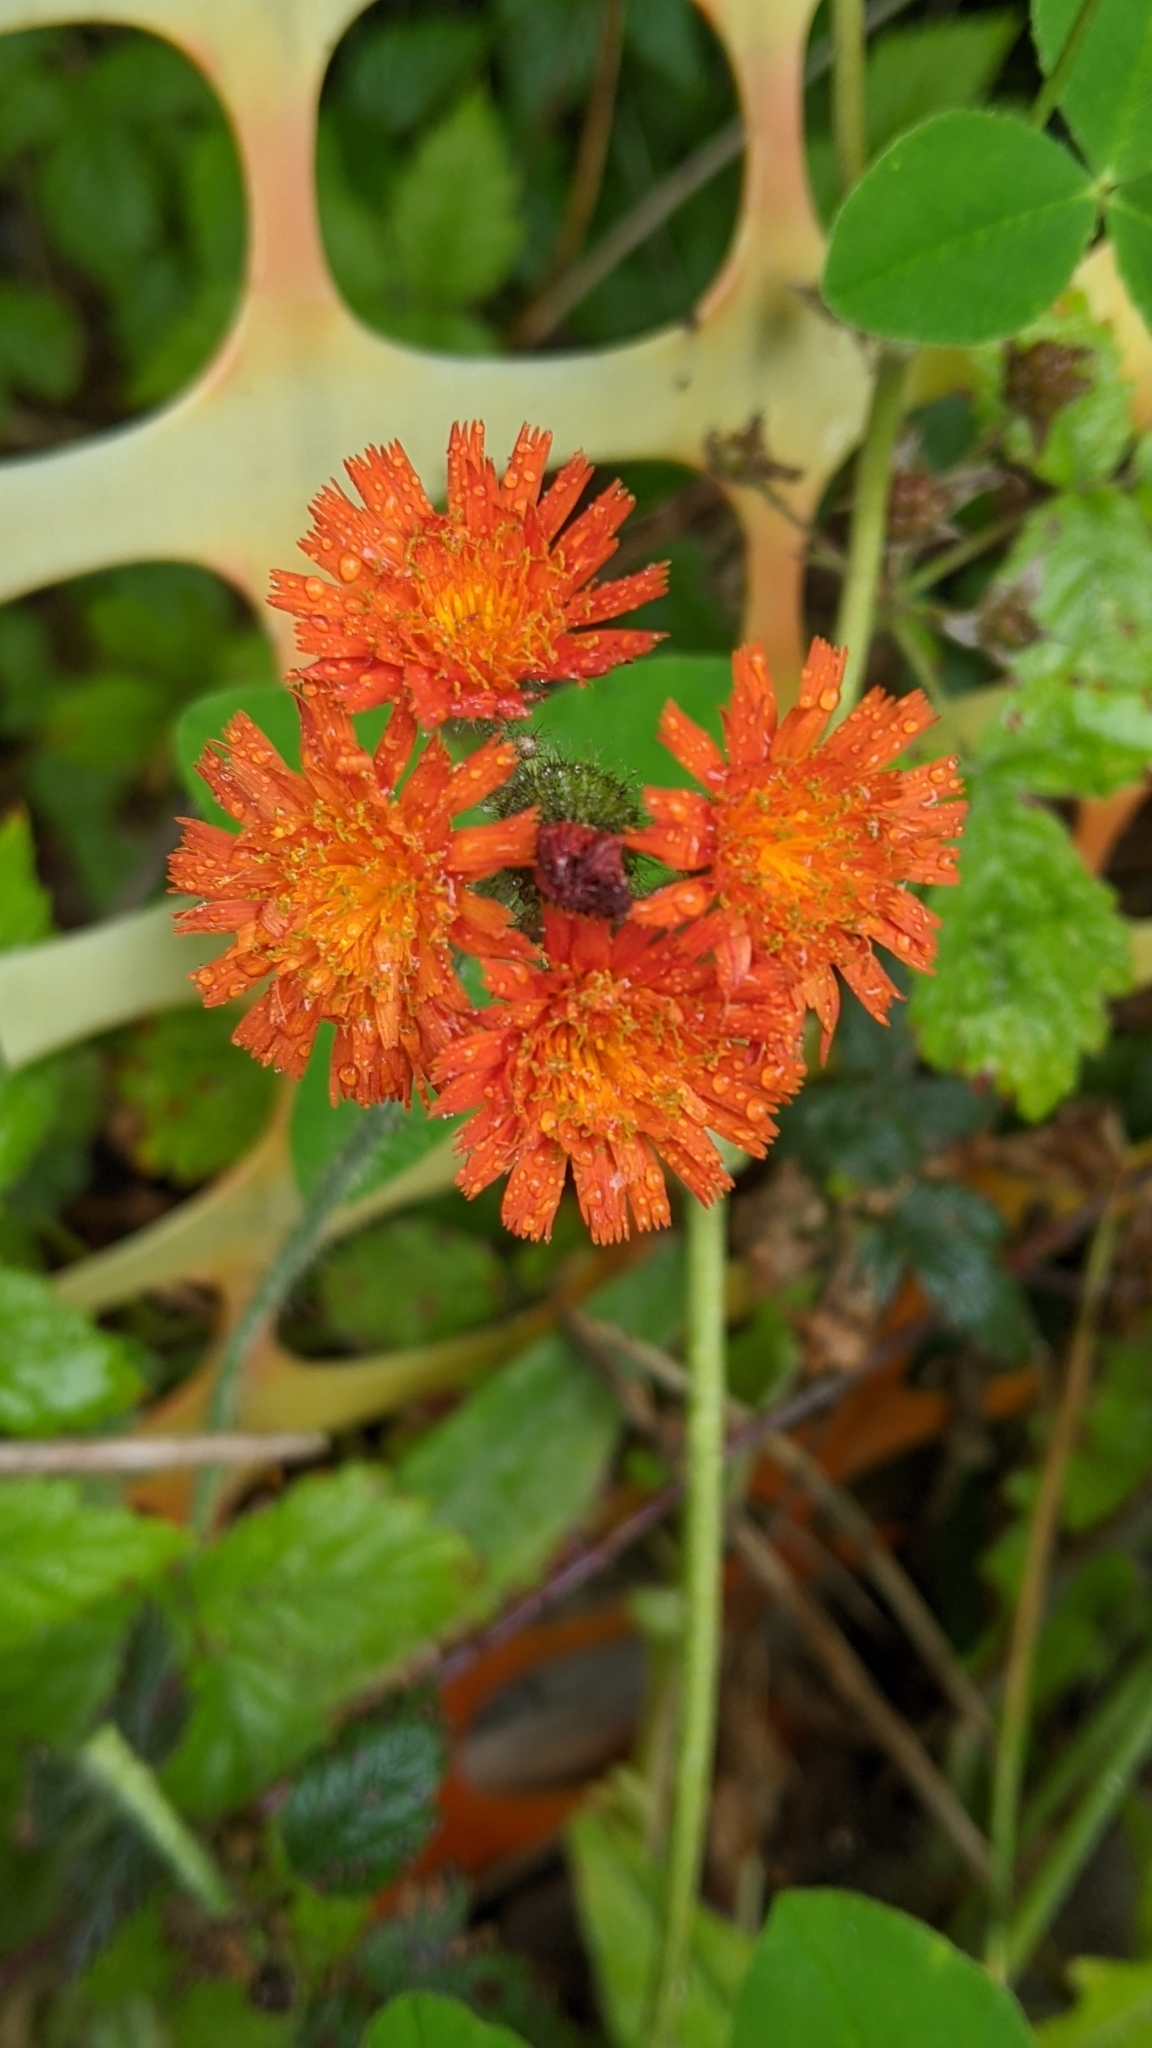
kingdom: Plantae
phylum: Tracheophyta
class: Magnoliopsida
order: Asterales
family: Asteraceae
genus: Pilosella
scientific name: Pilosella aurantiaca
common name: Fox-and-cubs
